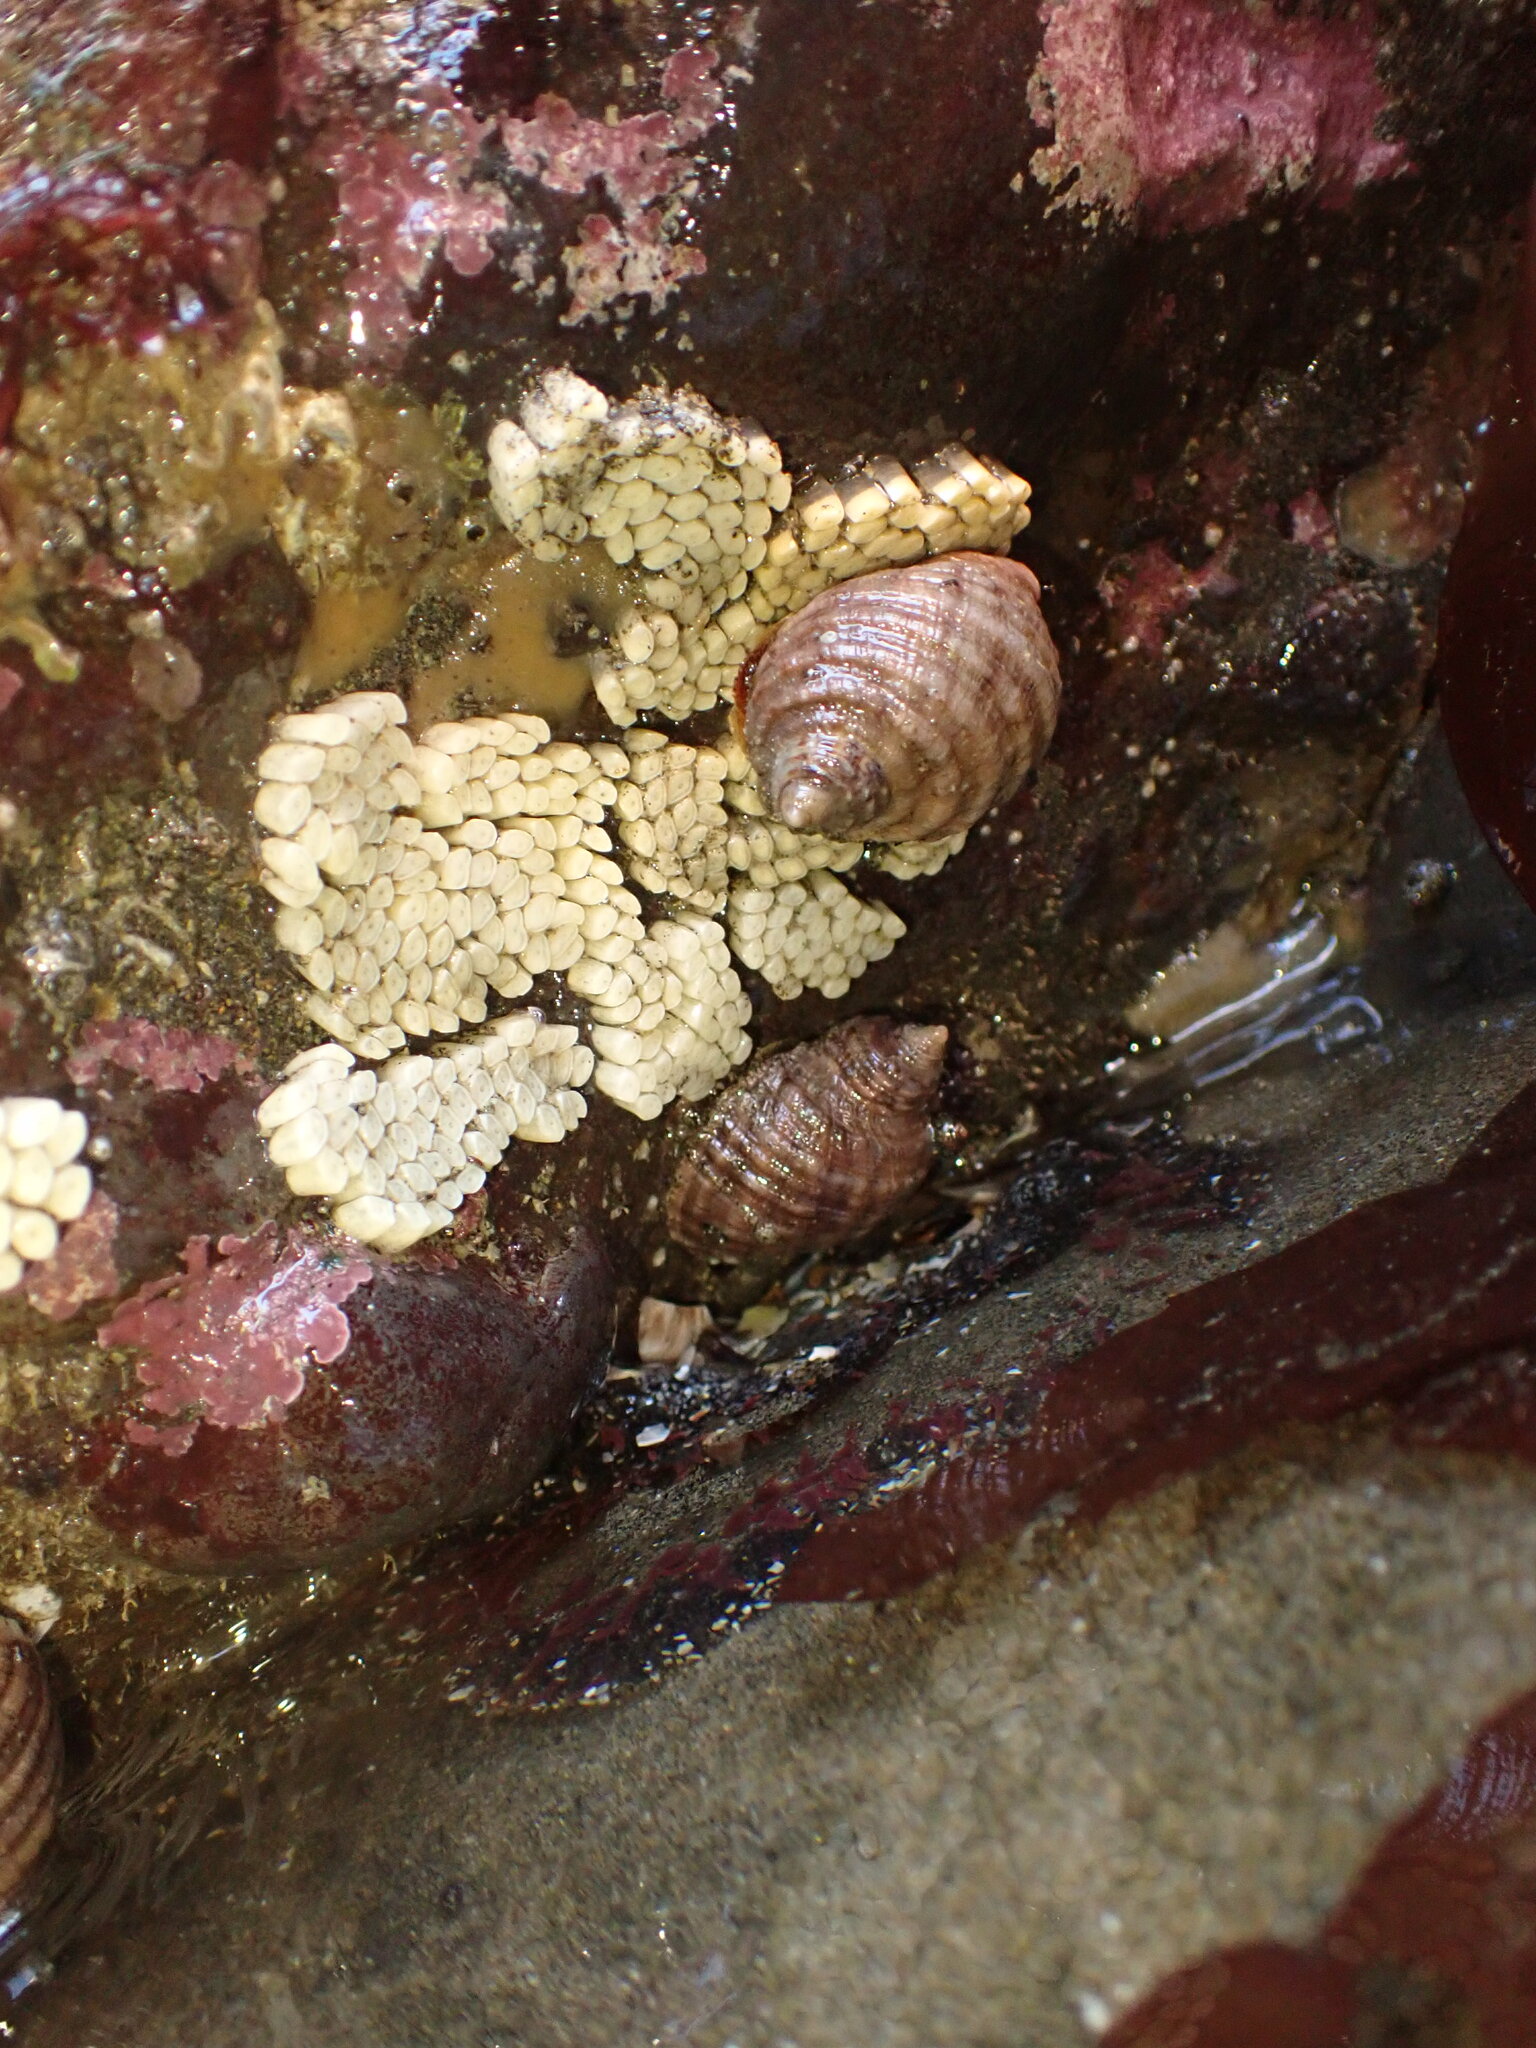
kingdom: Animalia
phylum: Mollusca
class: Gastropoda
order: Neogastropoda
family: Muricidae
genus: Dicathais
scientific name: Dicathais orbita
